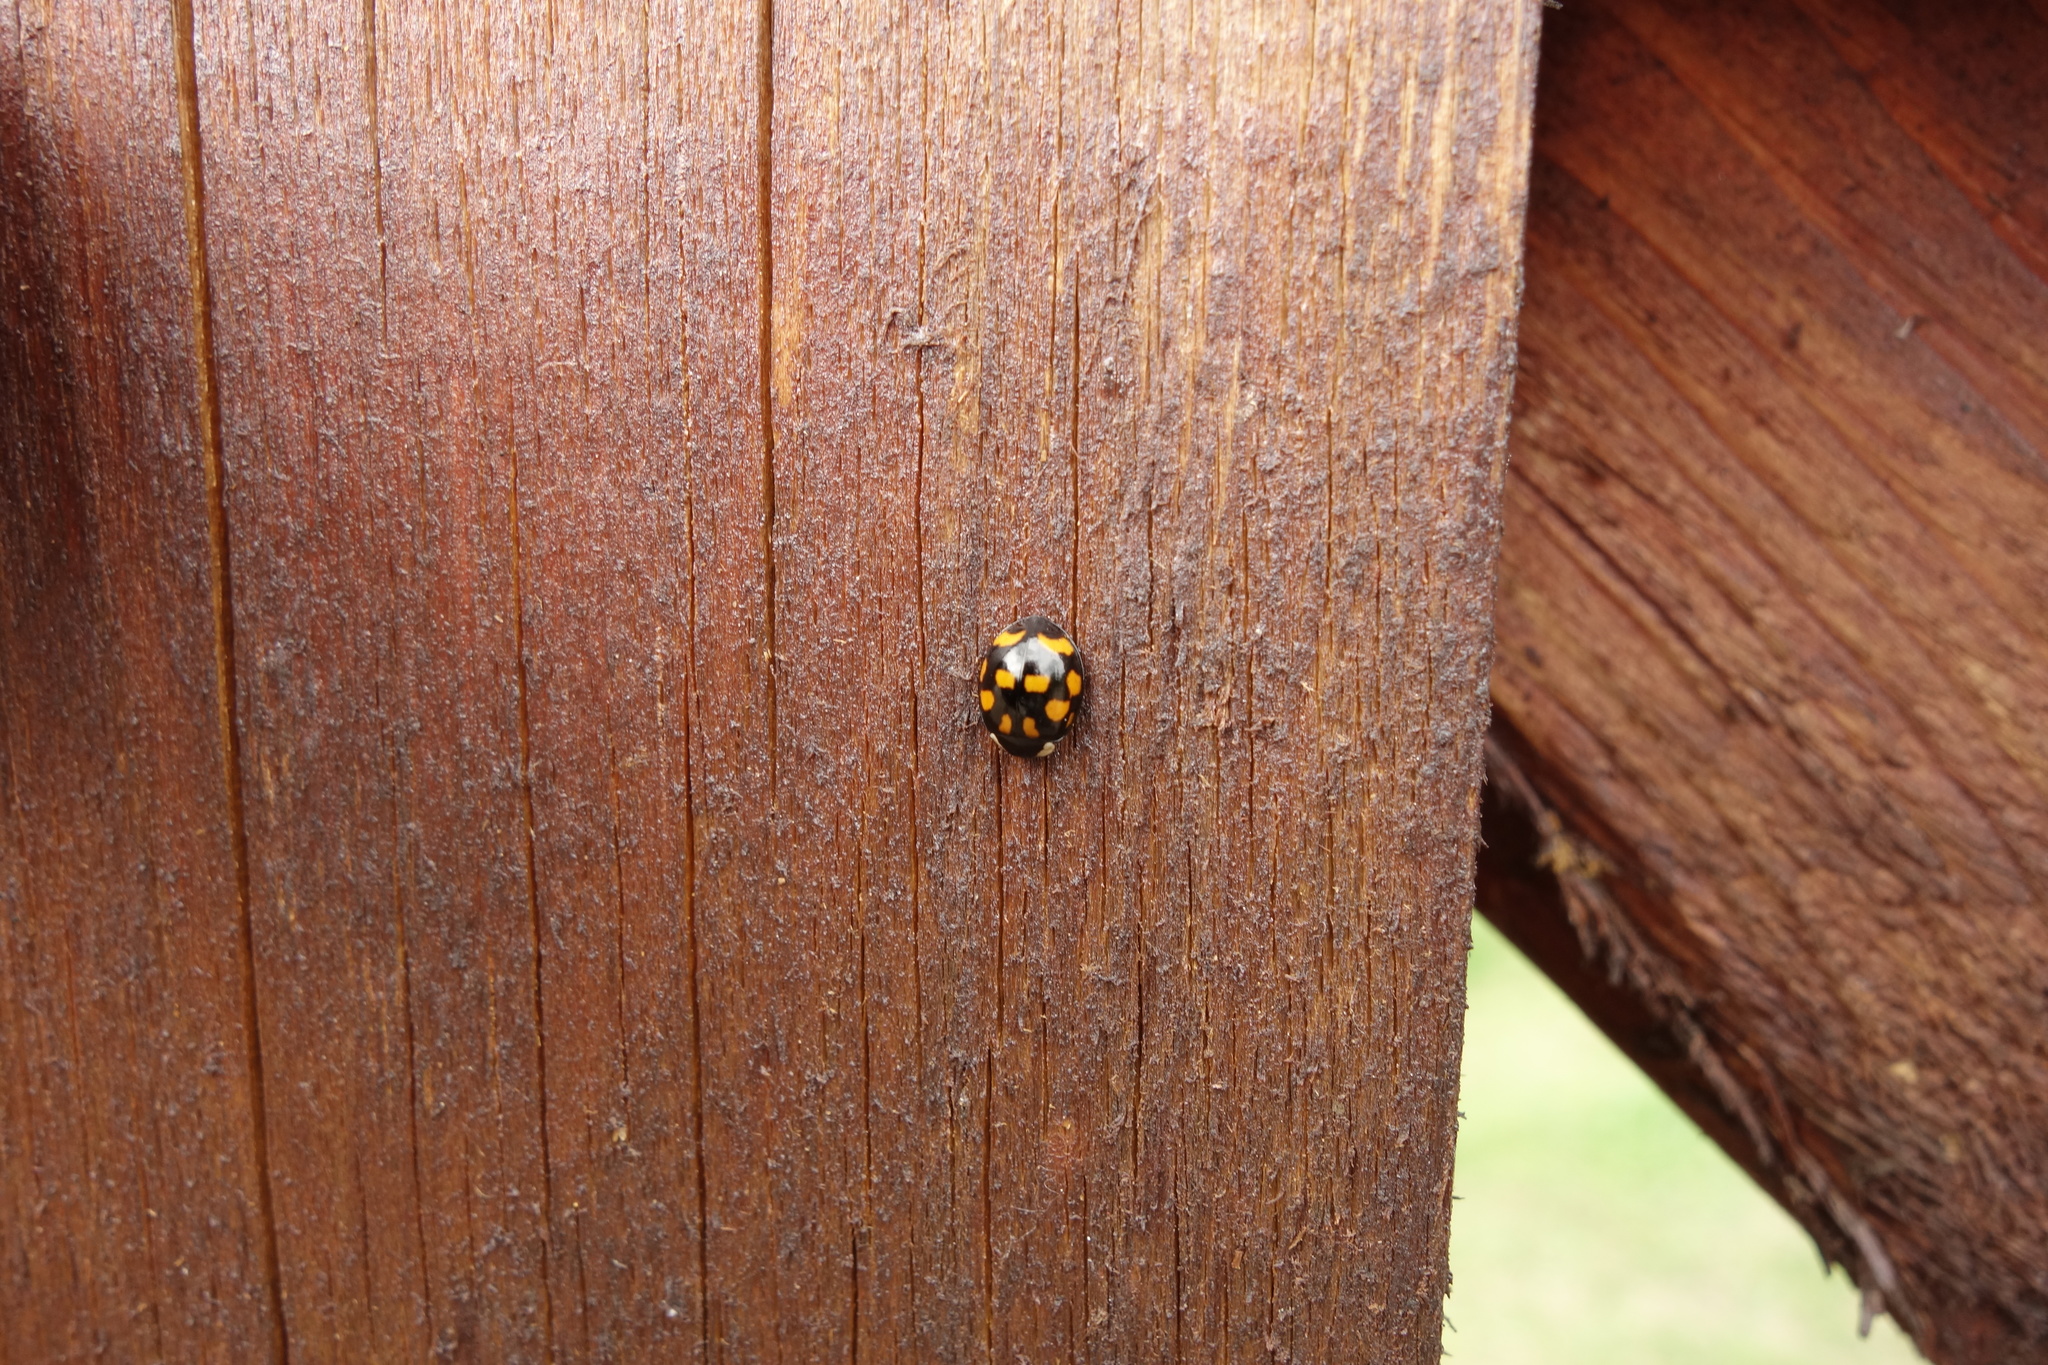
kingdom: Animalia
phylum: Arthropoda
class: Insecta
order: Coleoptera
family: Coccinellidae
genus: Harmonia
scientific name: Harmonia axyridis
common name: Harlequin ladybird
